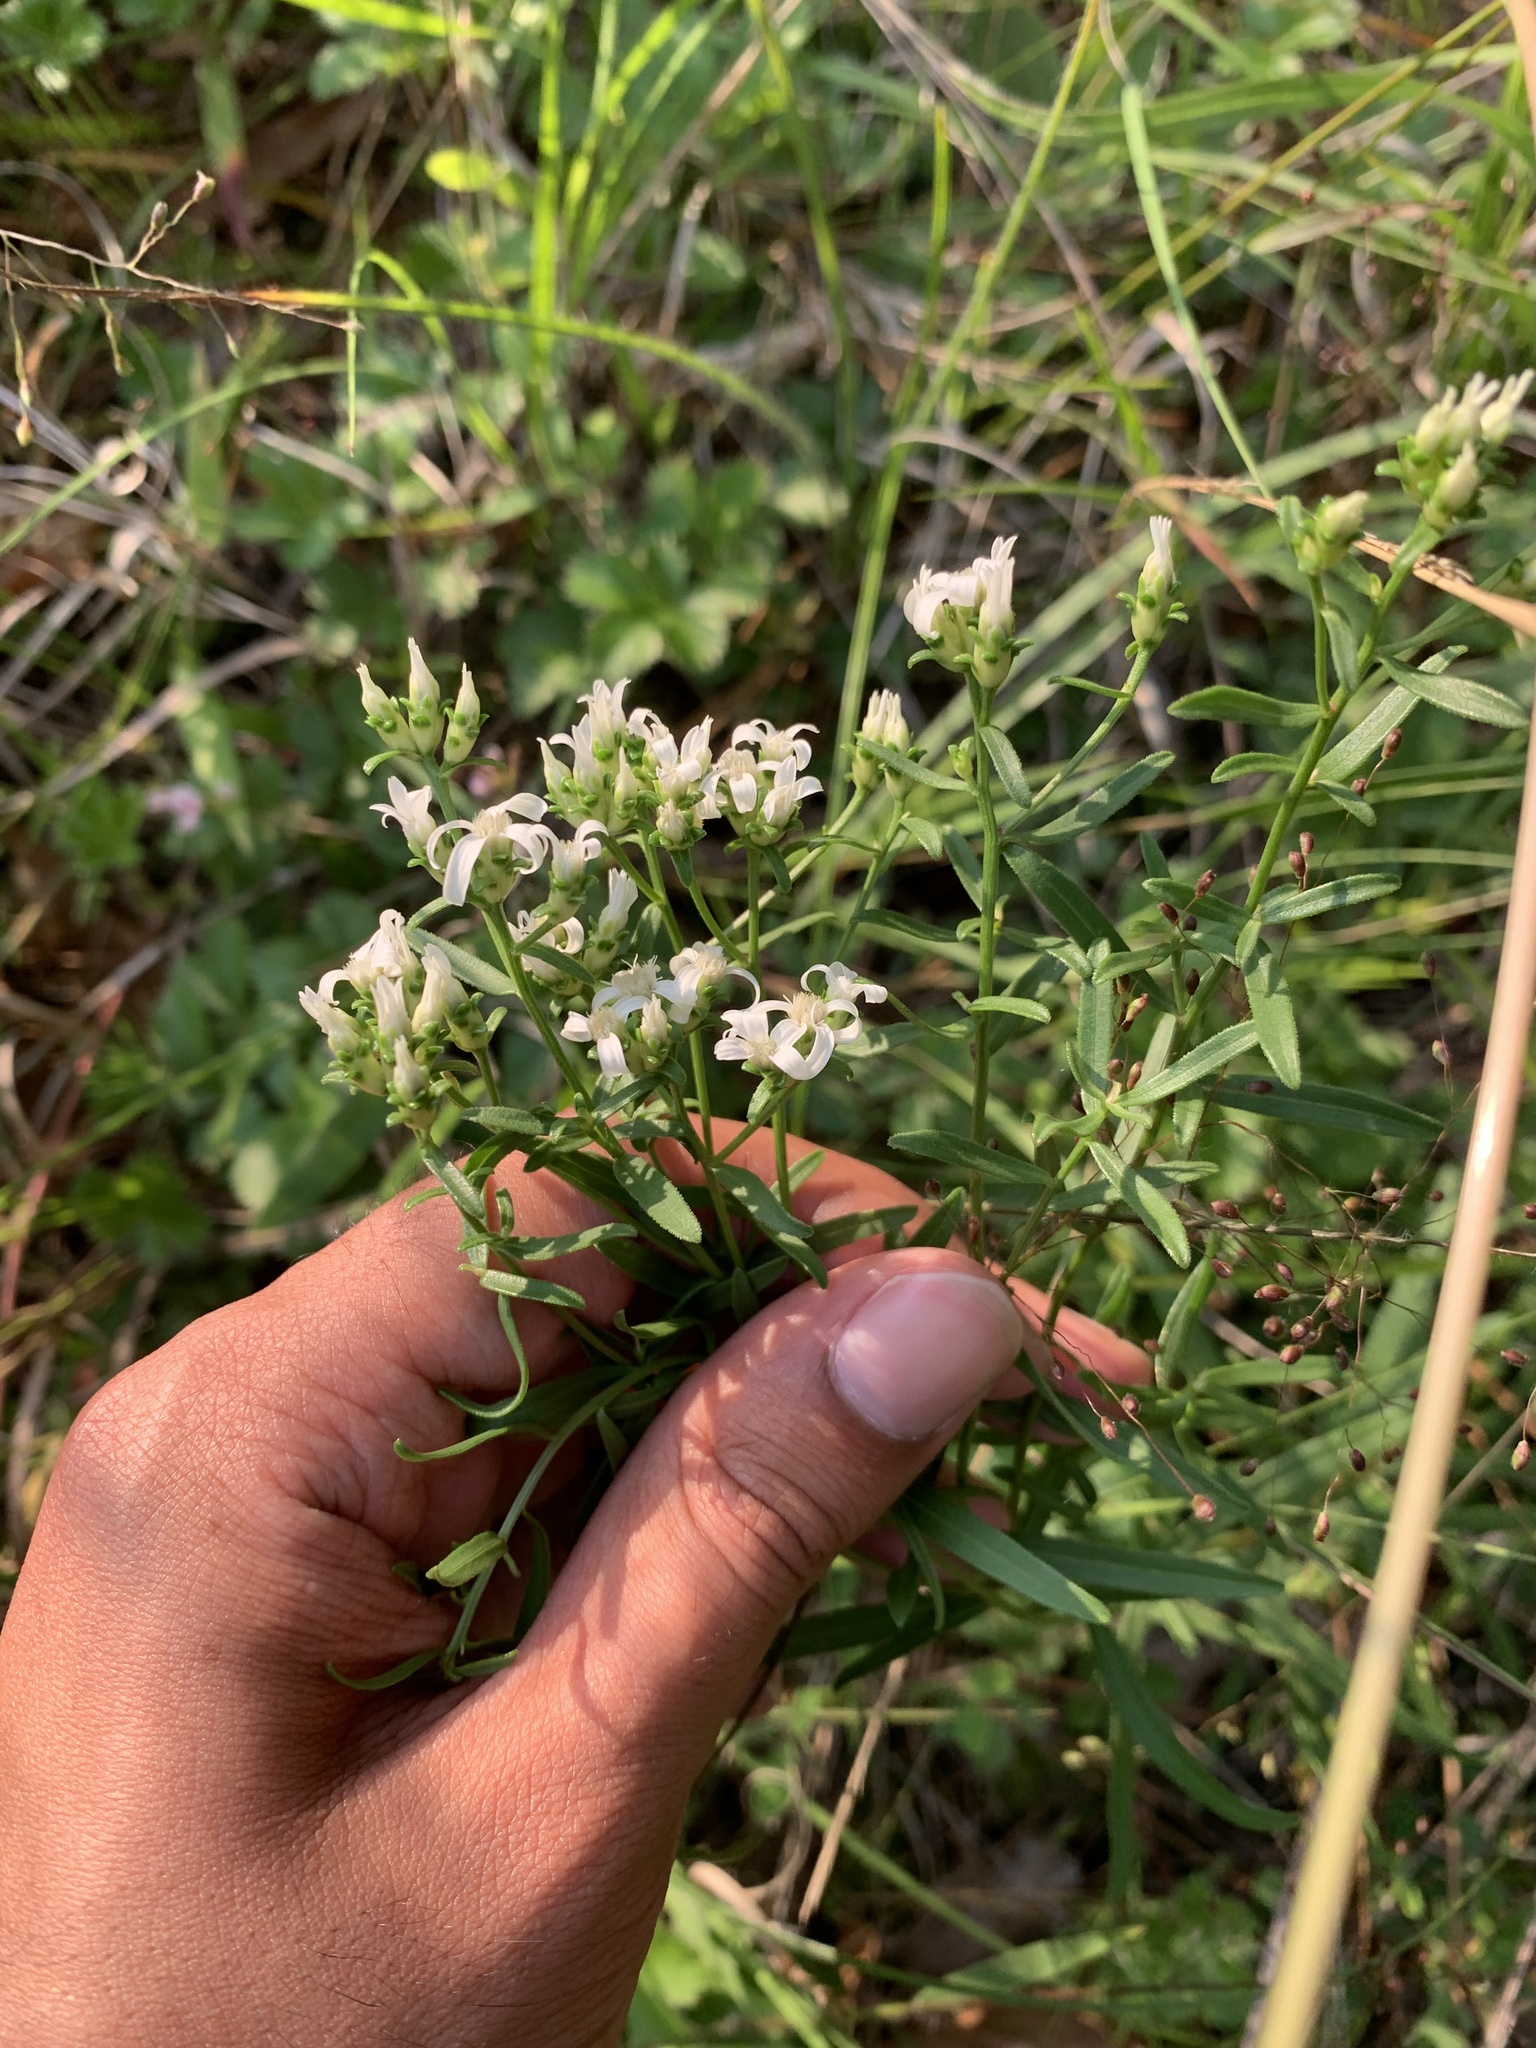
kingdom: Plantae
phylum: Tracheophyta
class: Magnoliopsida
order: Asterales
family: Asteraceae
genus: Sericocarpus
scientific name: Sericocarpus linifolius
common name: Narrow-leaf aster
